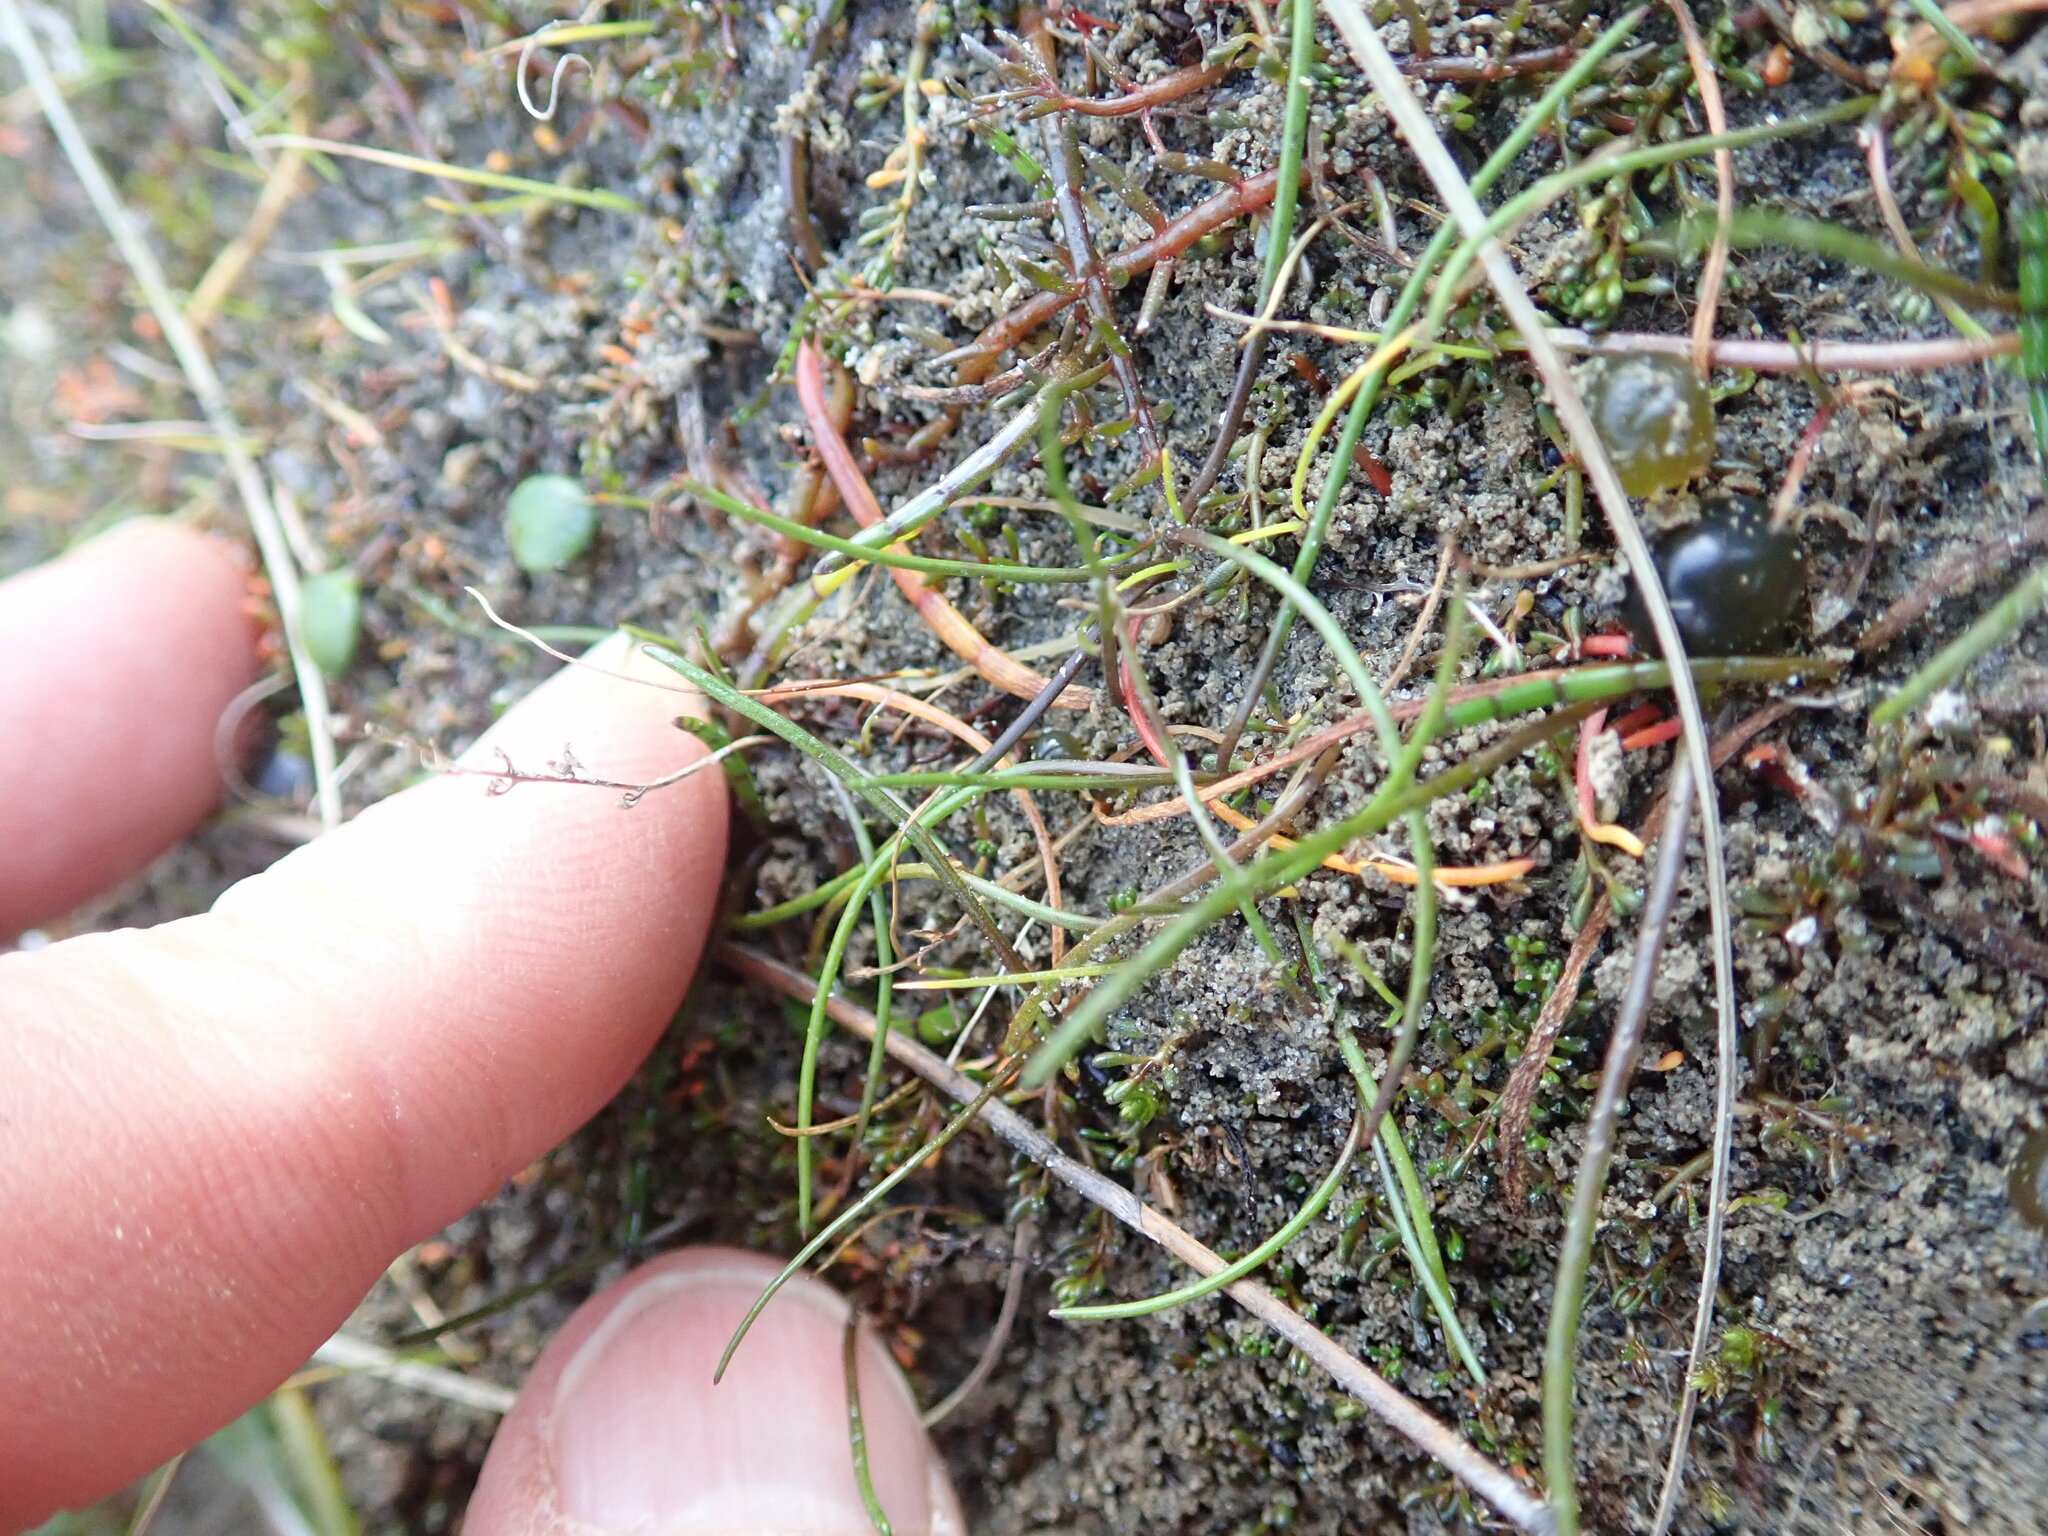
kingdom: Plantae
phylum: Tracheophyta
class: Liliopsida
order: Alismatales
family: Juncaginaceae
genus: Triglochin
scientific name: Triglochin striata
